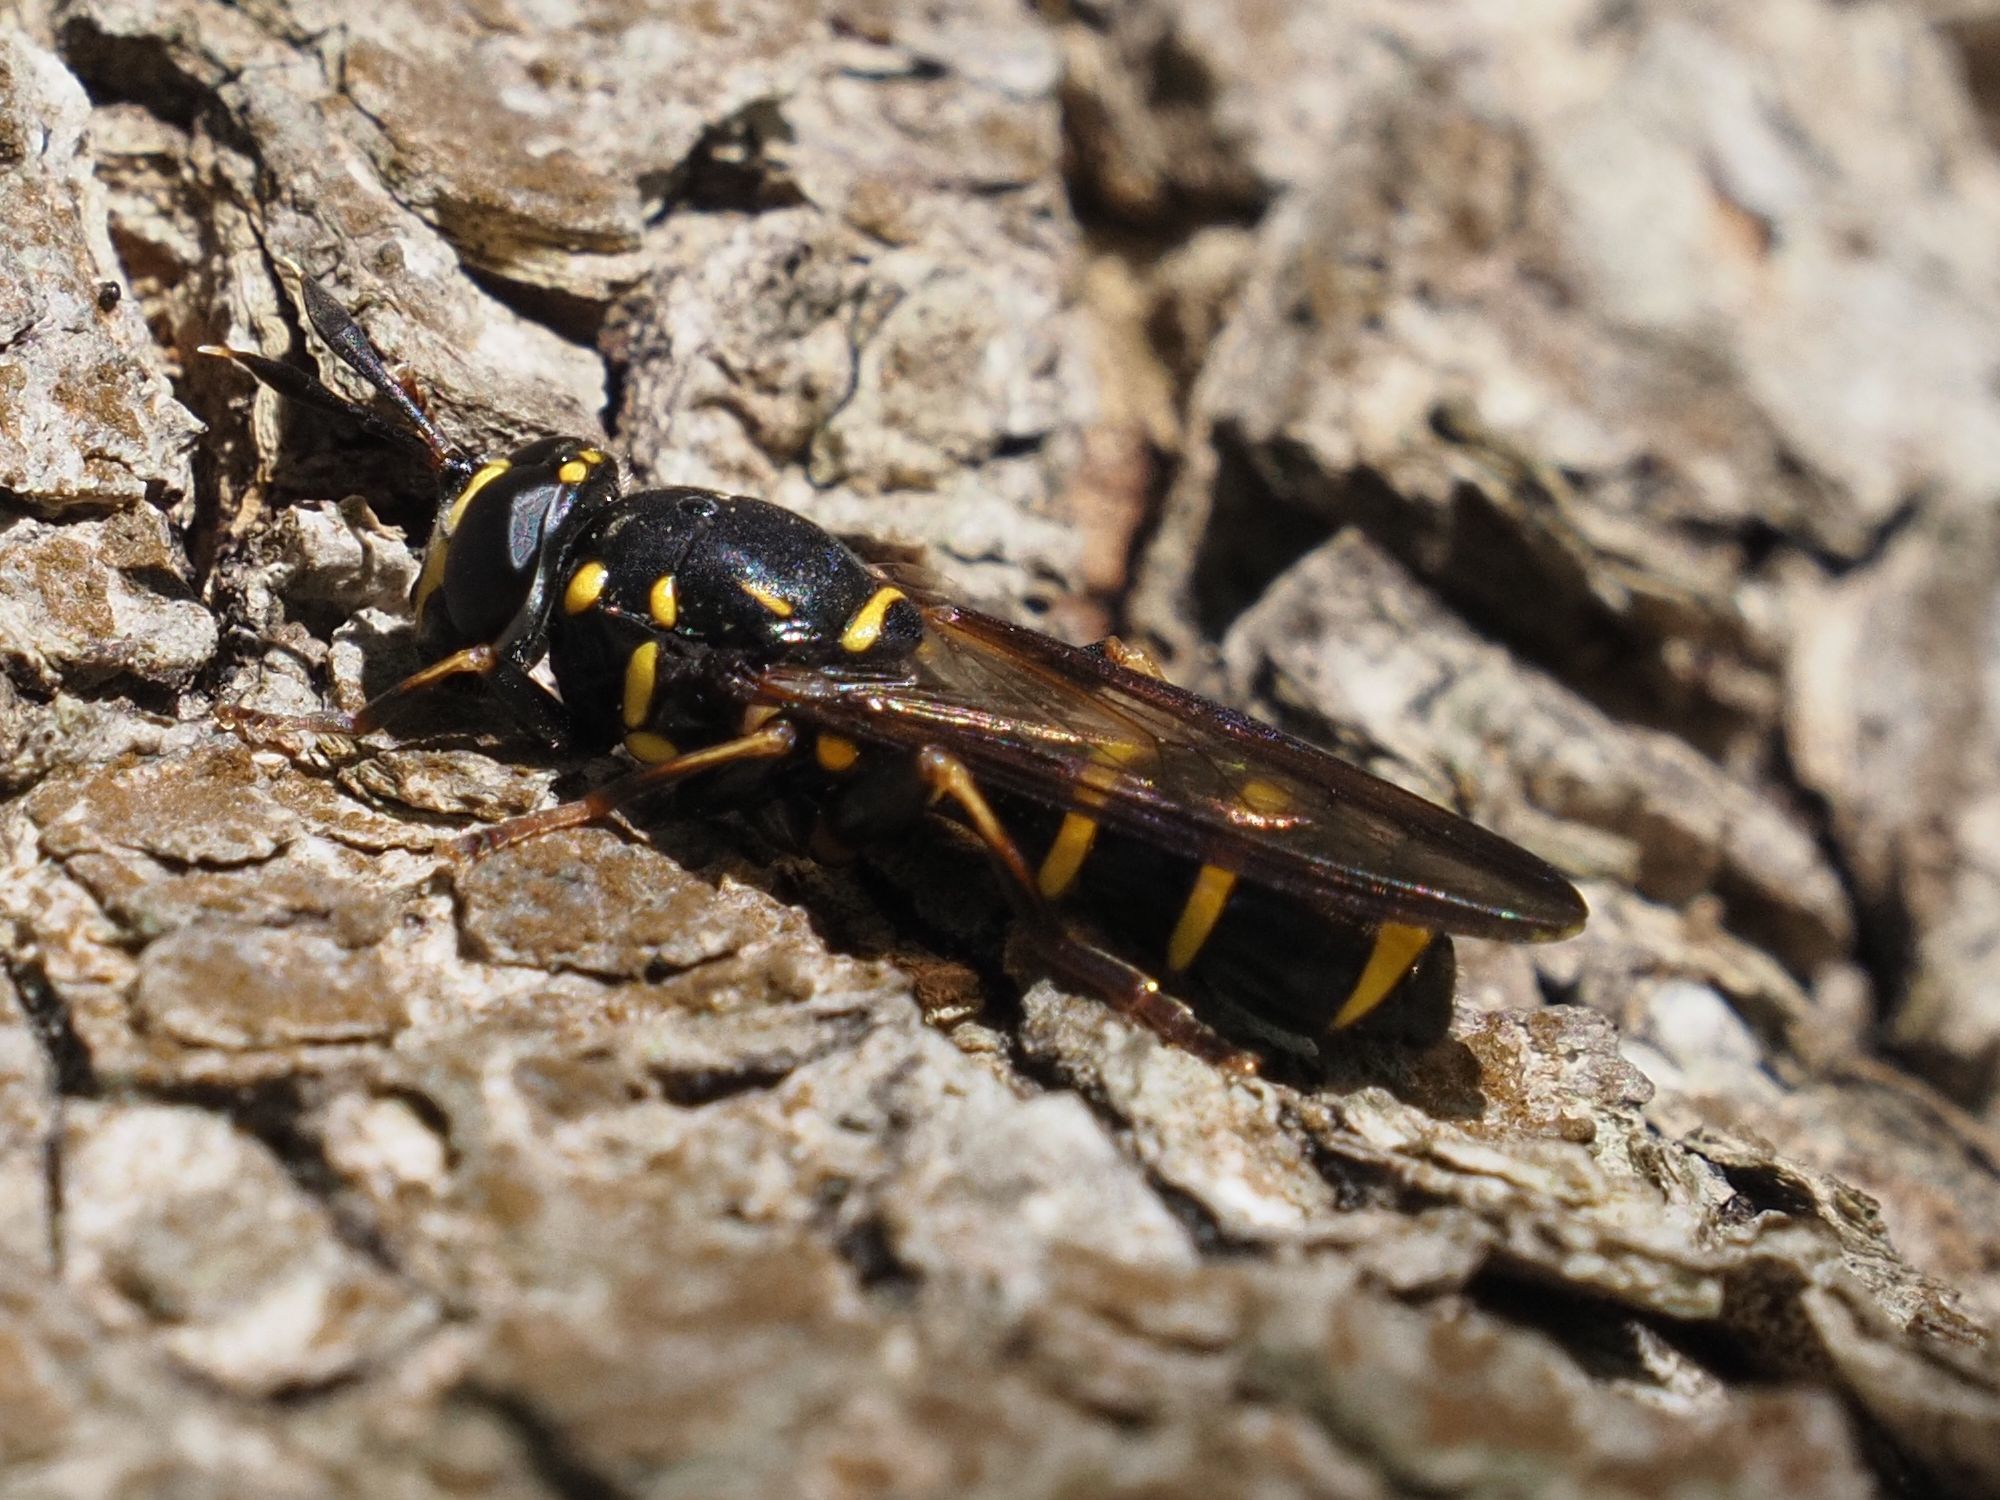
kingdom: Animalia
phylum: Arthropoda
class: Insecta
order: Diptera
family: Syrphidae
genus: Sphiximorpha
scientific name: Sphiximorpha subsessilis
